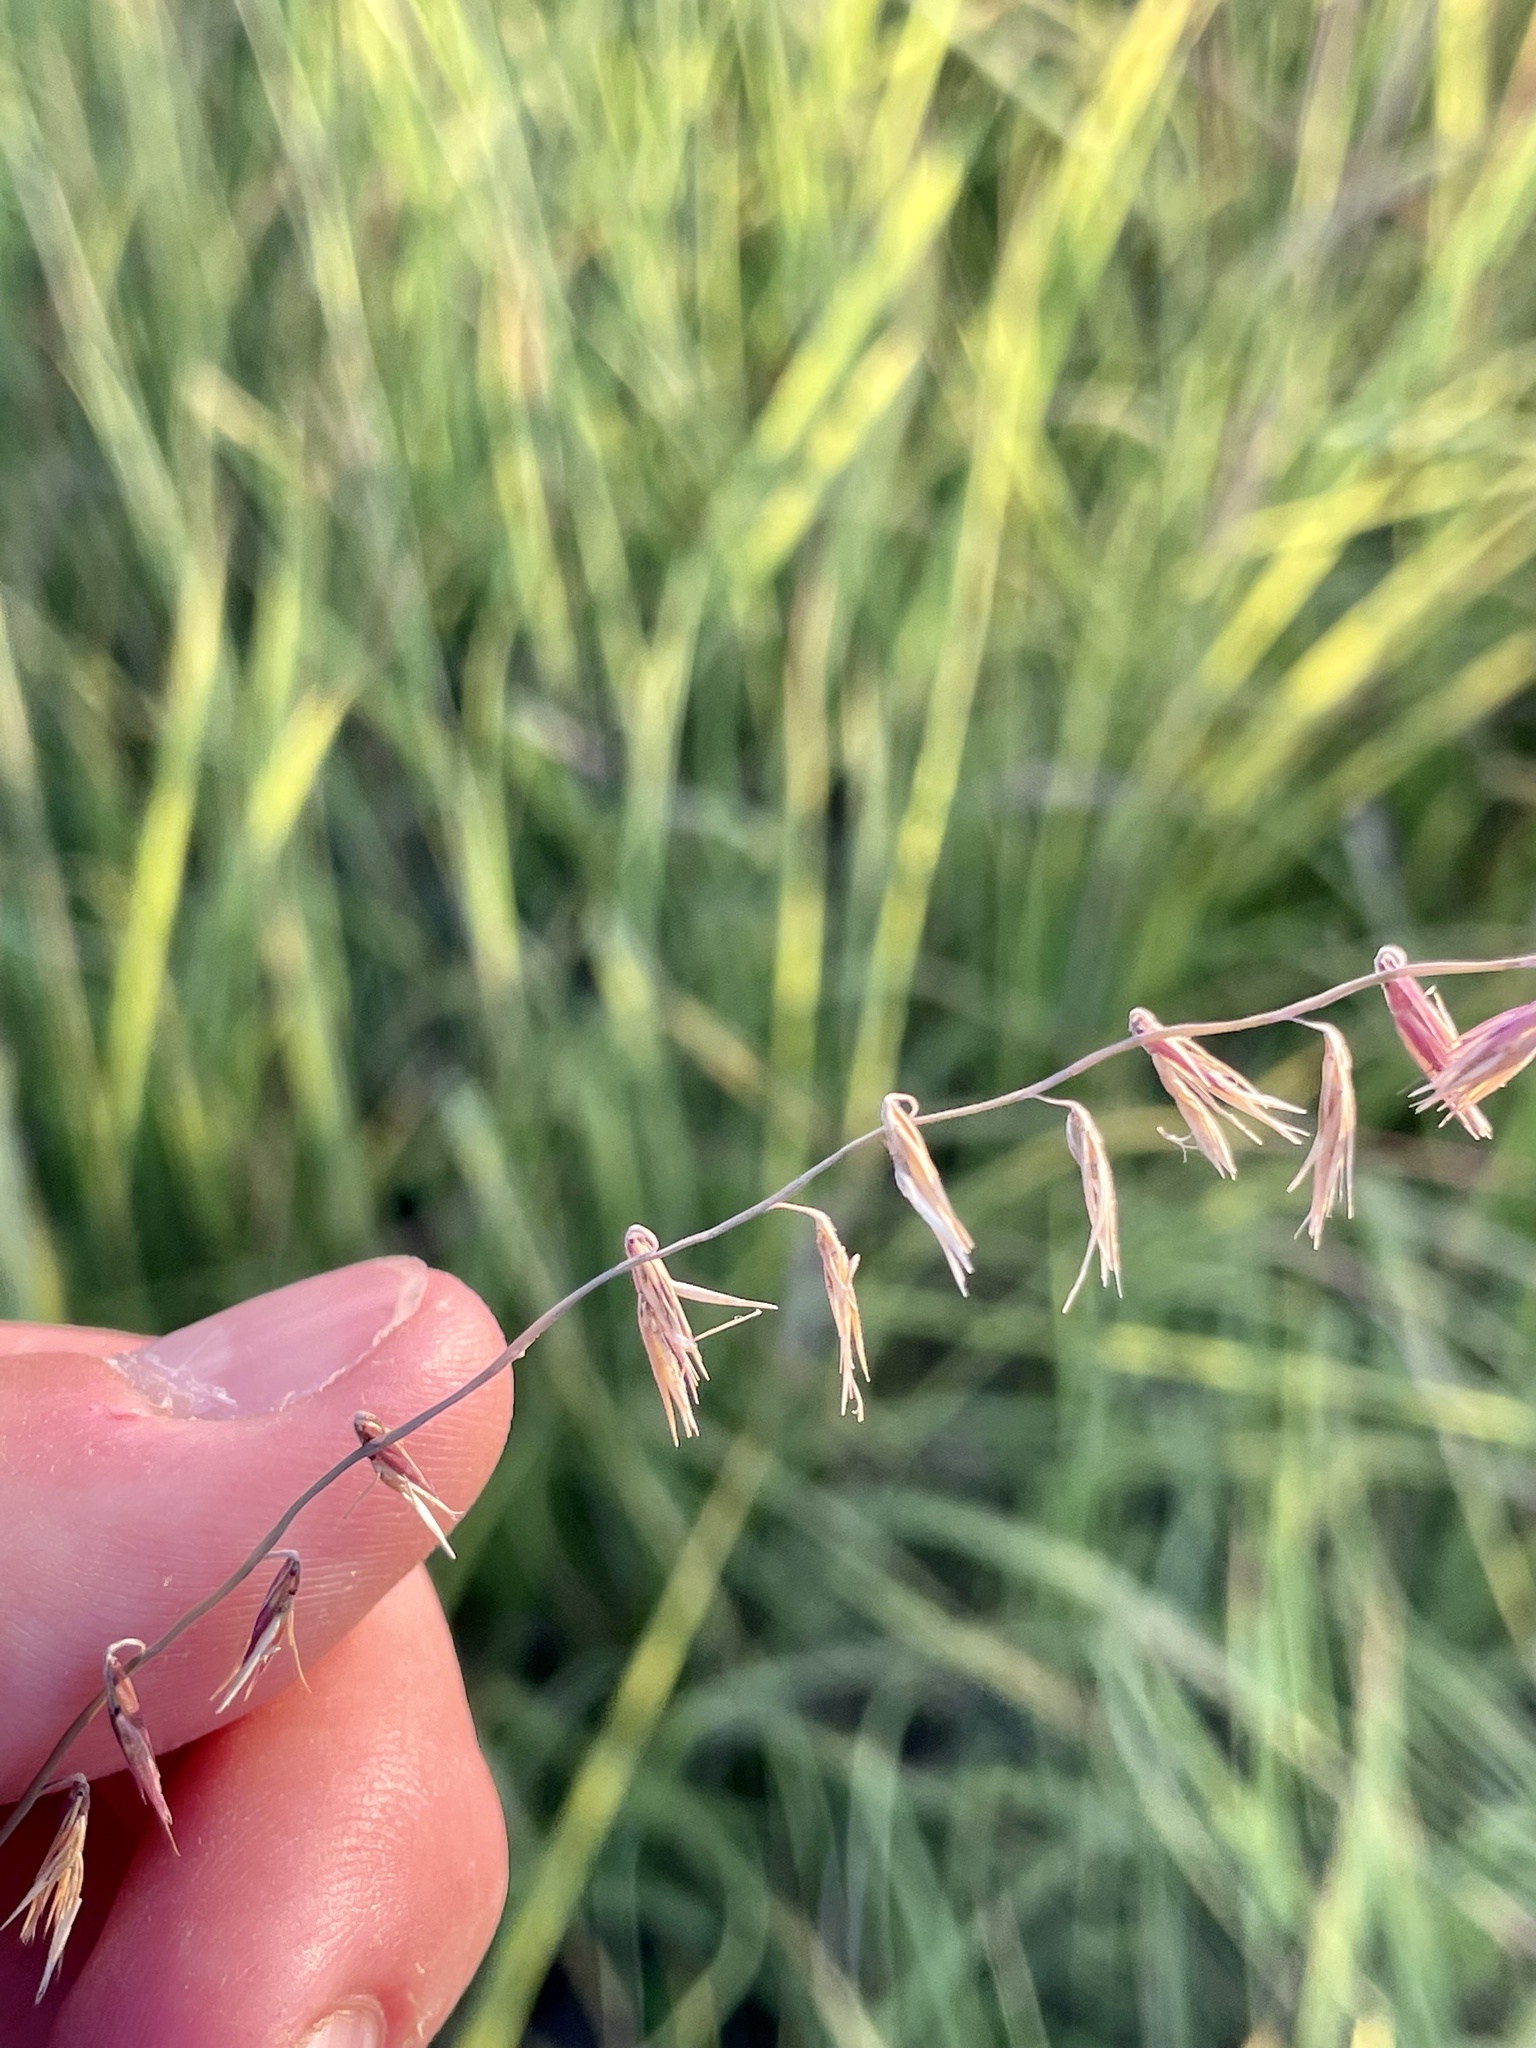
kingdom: Plantae
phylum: Tracheophyta
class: Liliopsida
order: Poales
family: Poaceae
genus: Bouteloua
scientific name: Bouteloua curtipendula
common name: Side-oats grama
